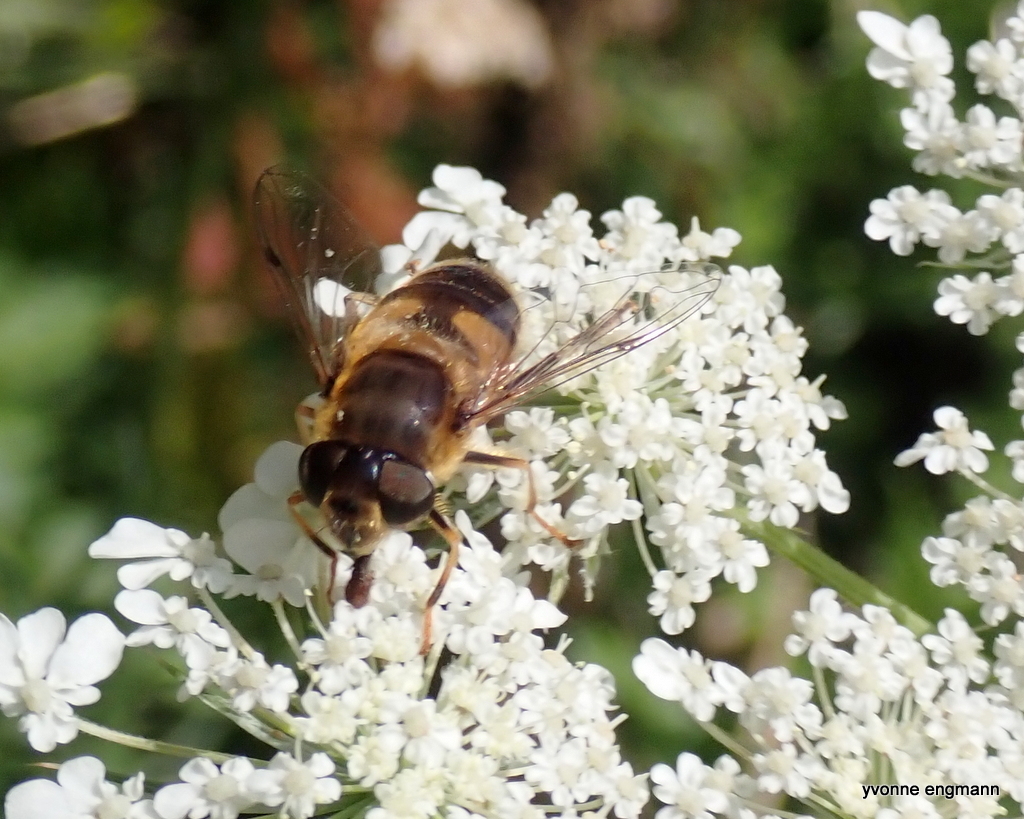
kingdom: Animalia
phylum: Arthropoda
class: Insecta
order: Diptera
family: Syrphidae
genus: Eristalis
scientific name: Eristalis pertinax
